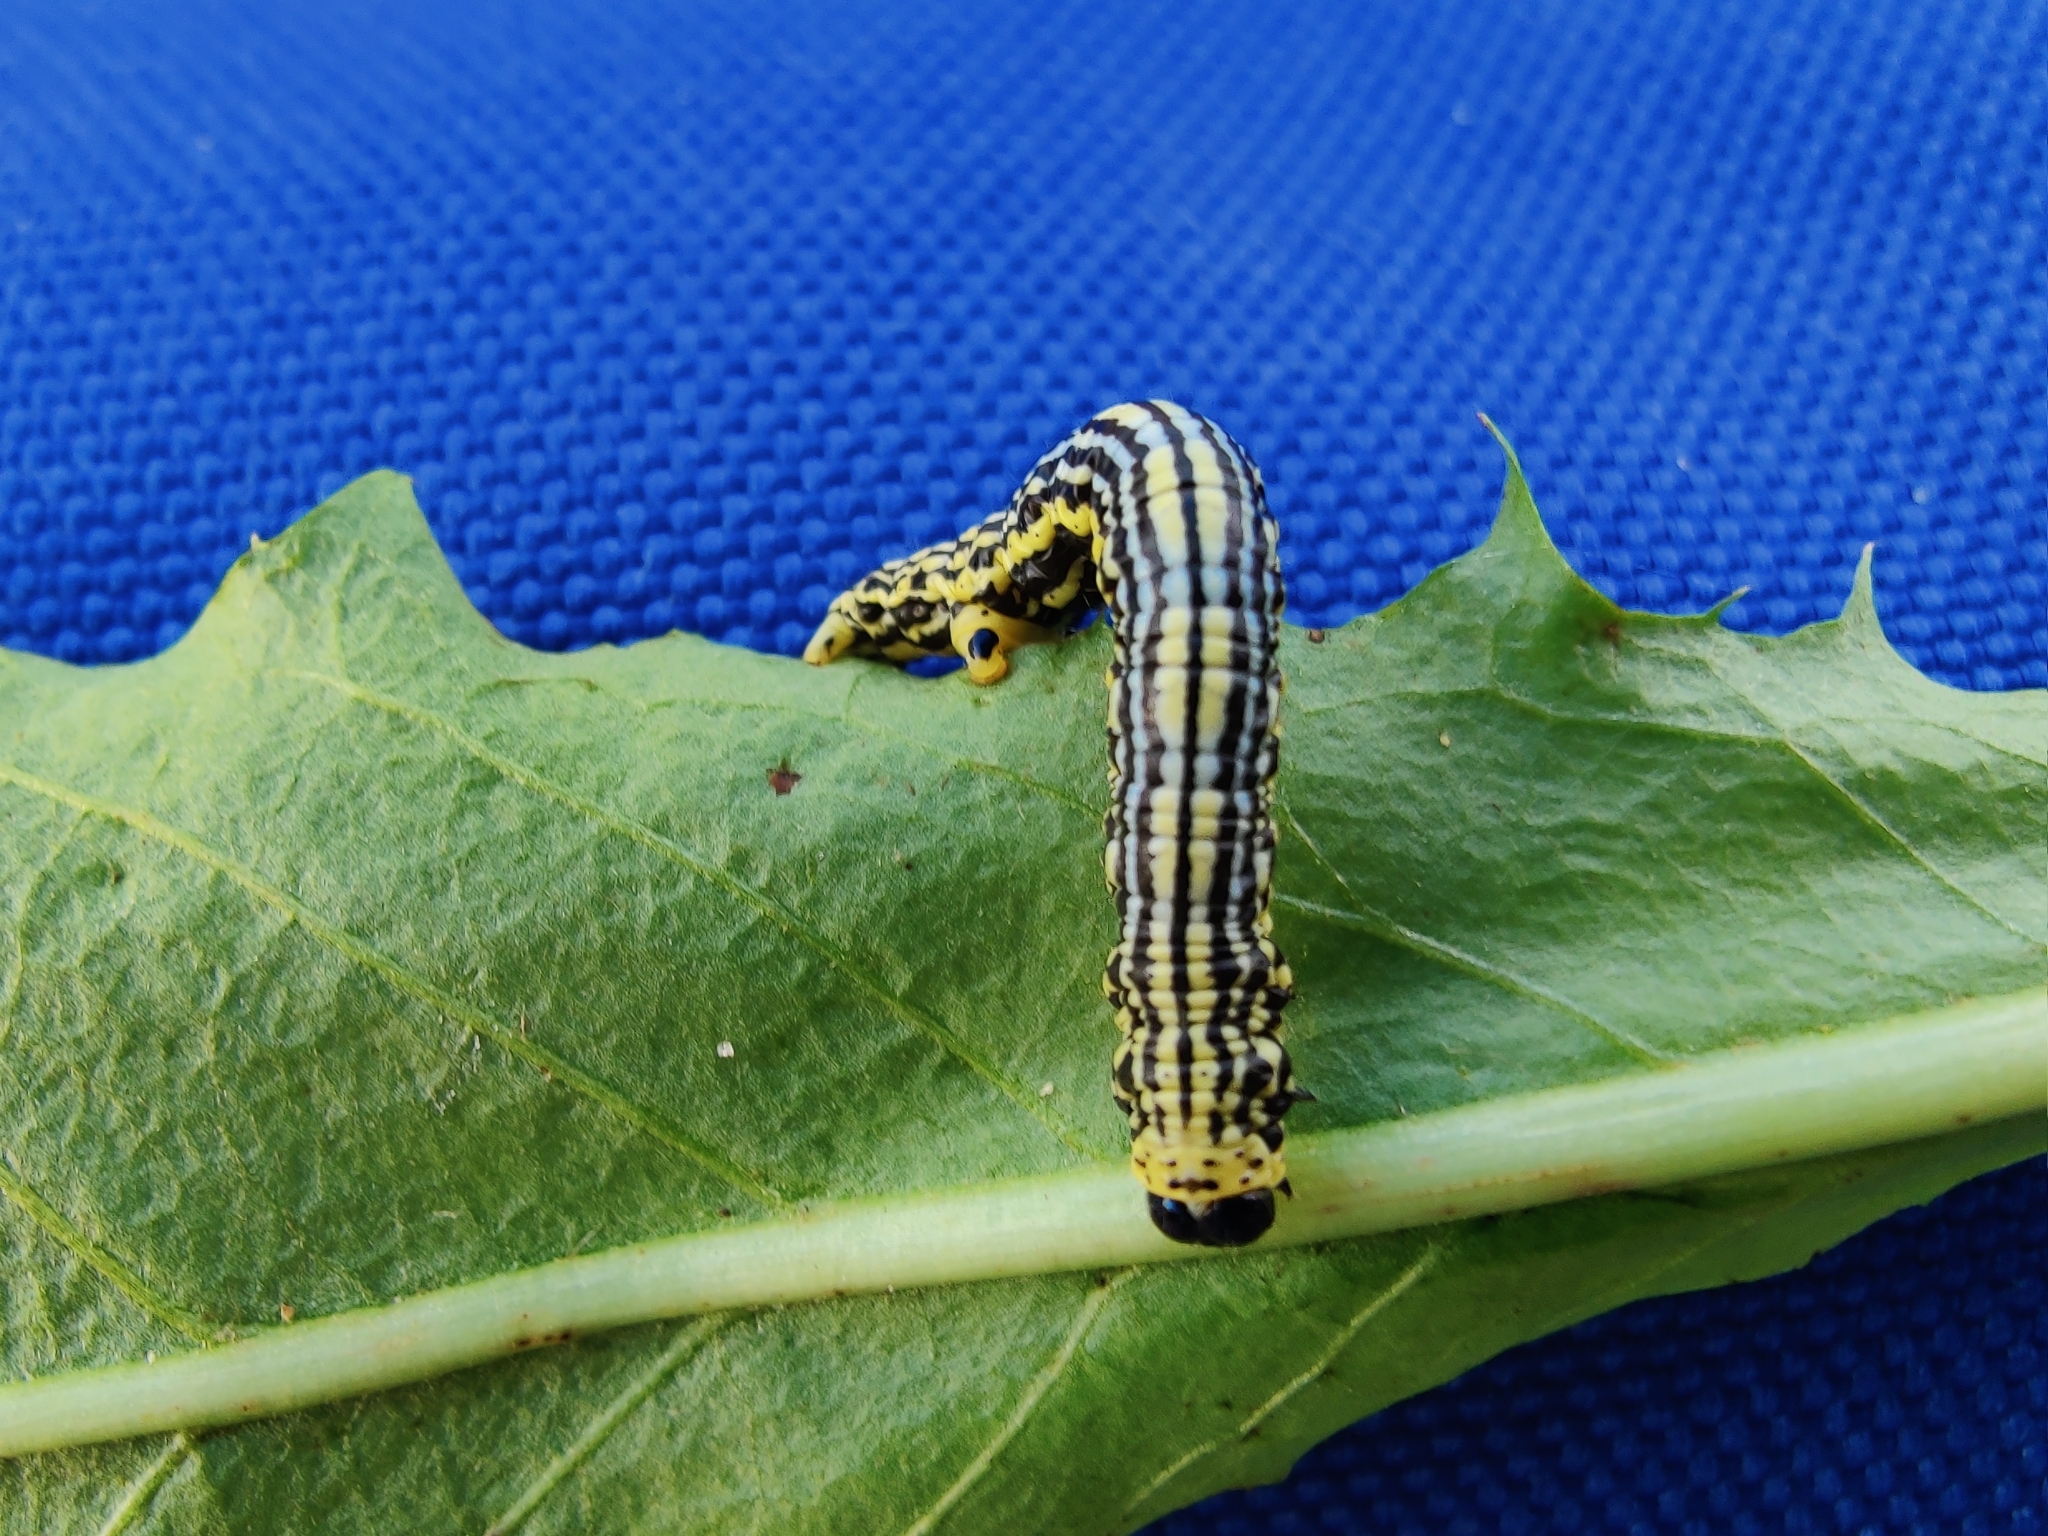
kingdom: Animalia
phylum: Arthropoda
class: Insecta
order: Lepidoptera
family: Geometridae
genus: Abraxas
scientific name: Abraxas sylvata
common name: Clouded magpie
